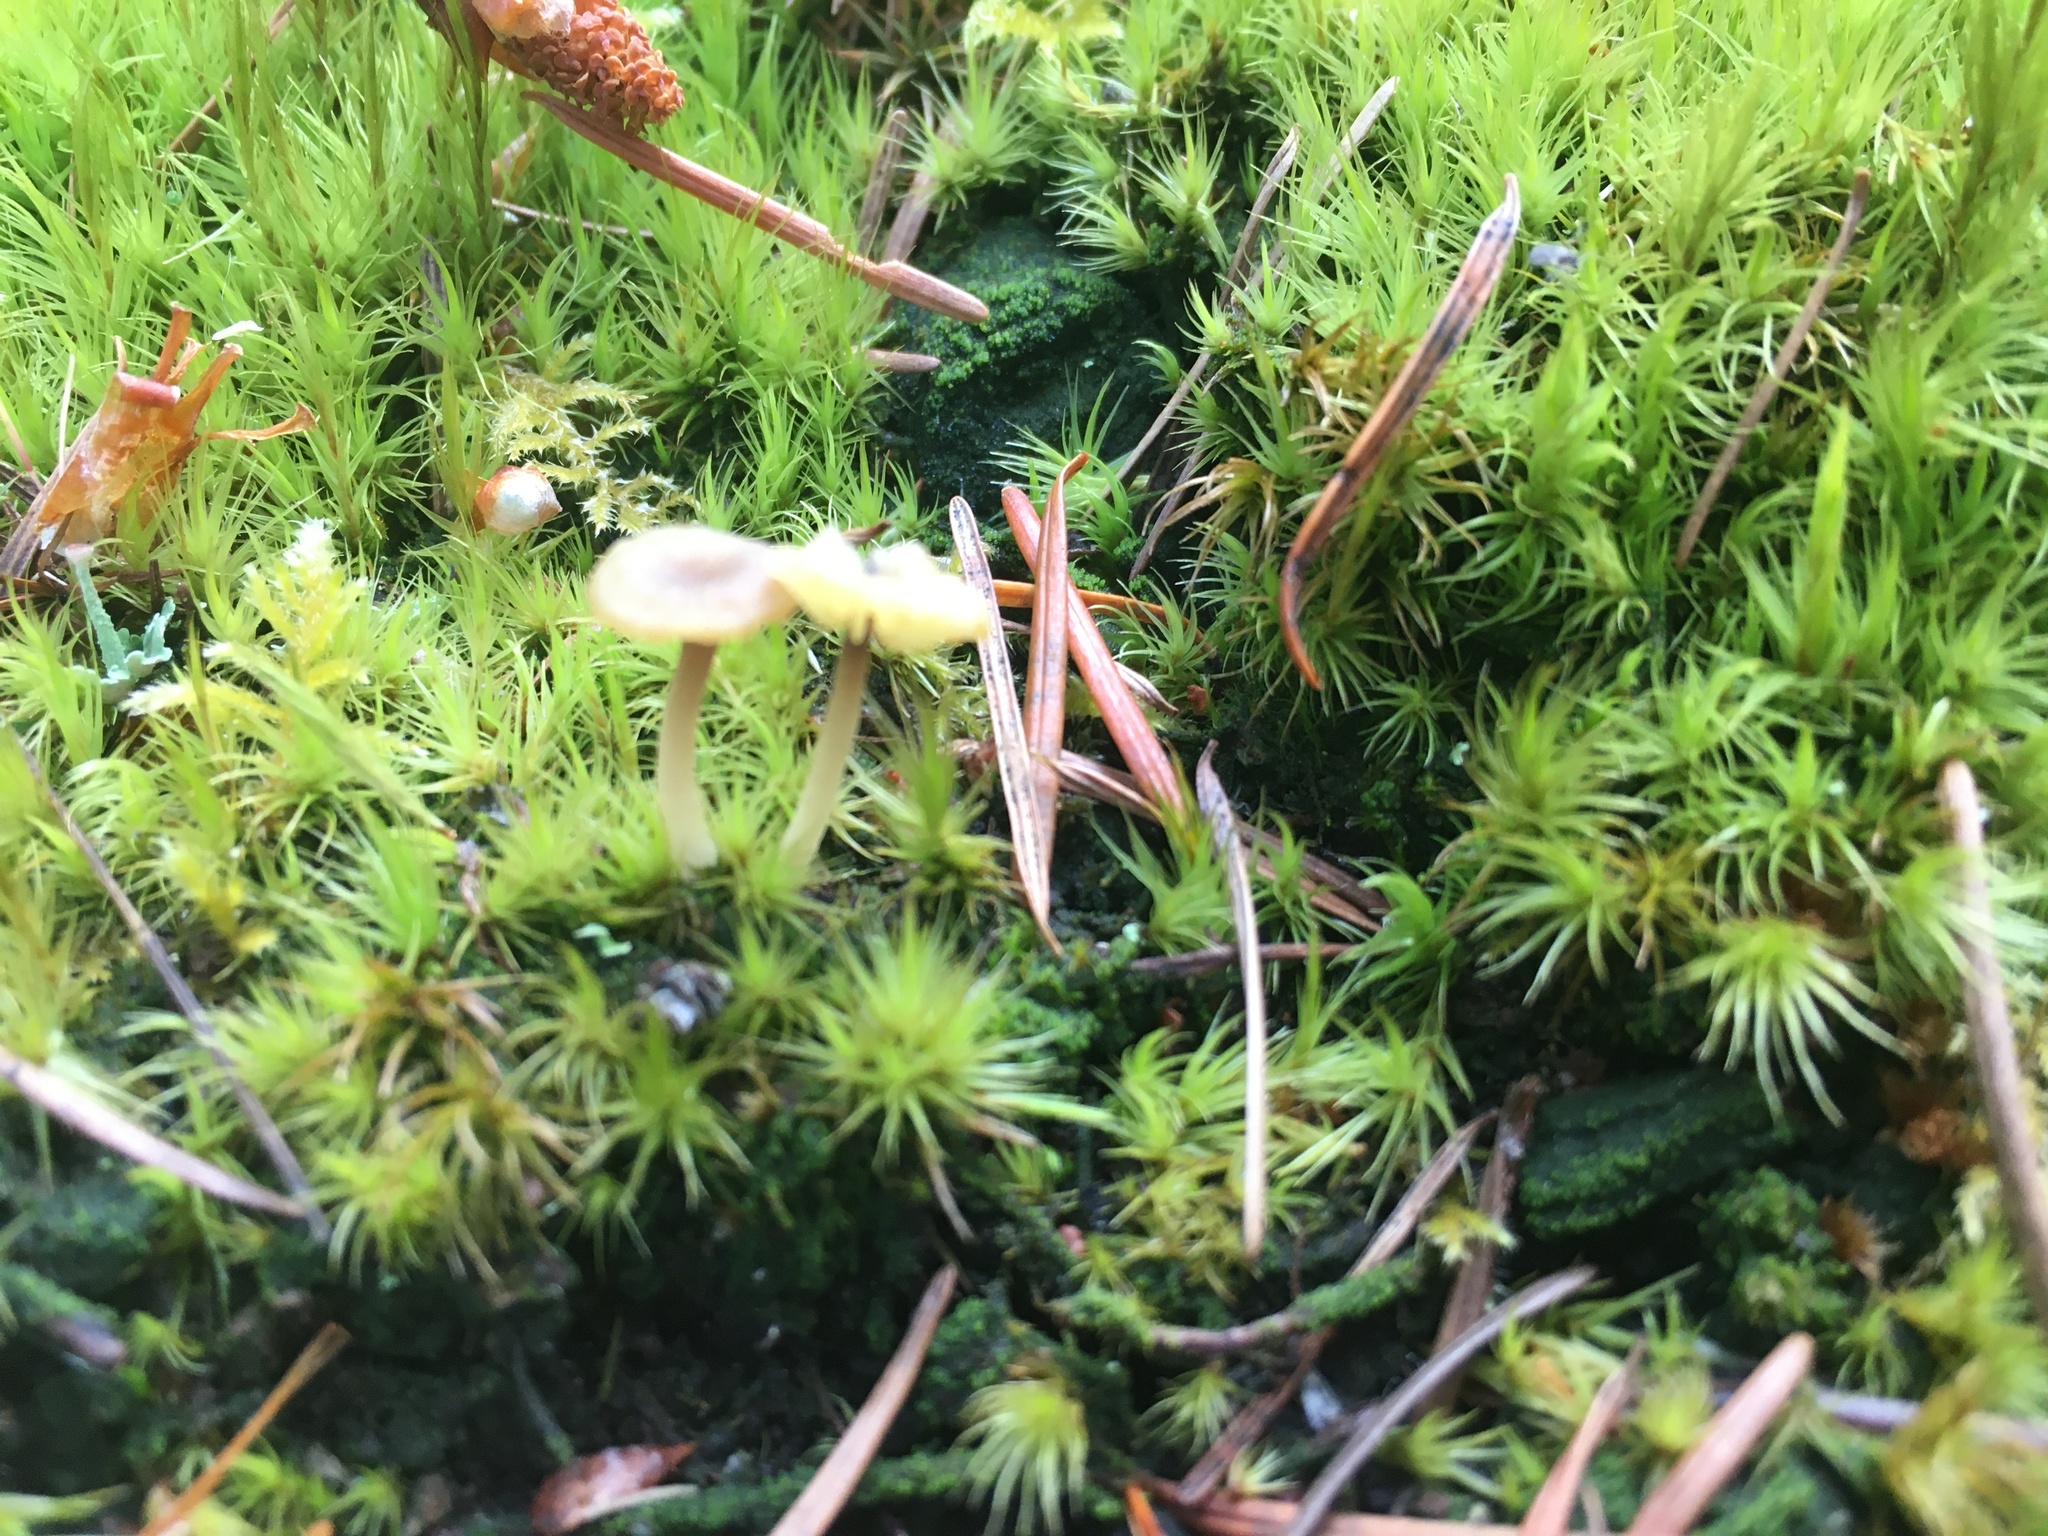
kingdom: Fungi
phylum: Basidiomycota
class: Agaricomycetes
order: Agaricales
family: Hygrophoraceae
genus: Lichenomphalia
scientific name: Lichenomphalia
